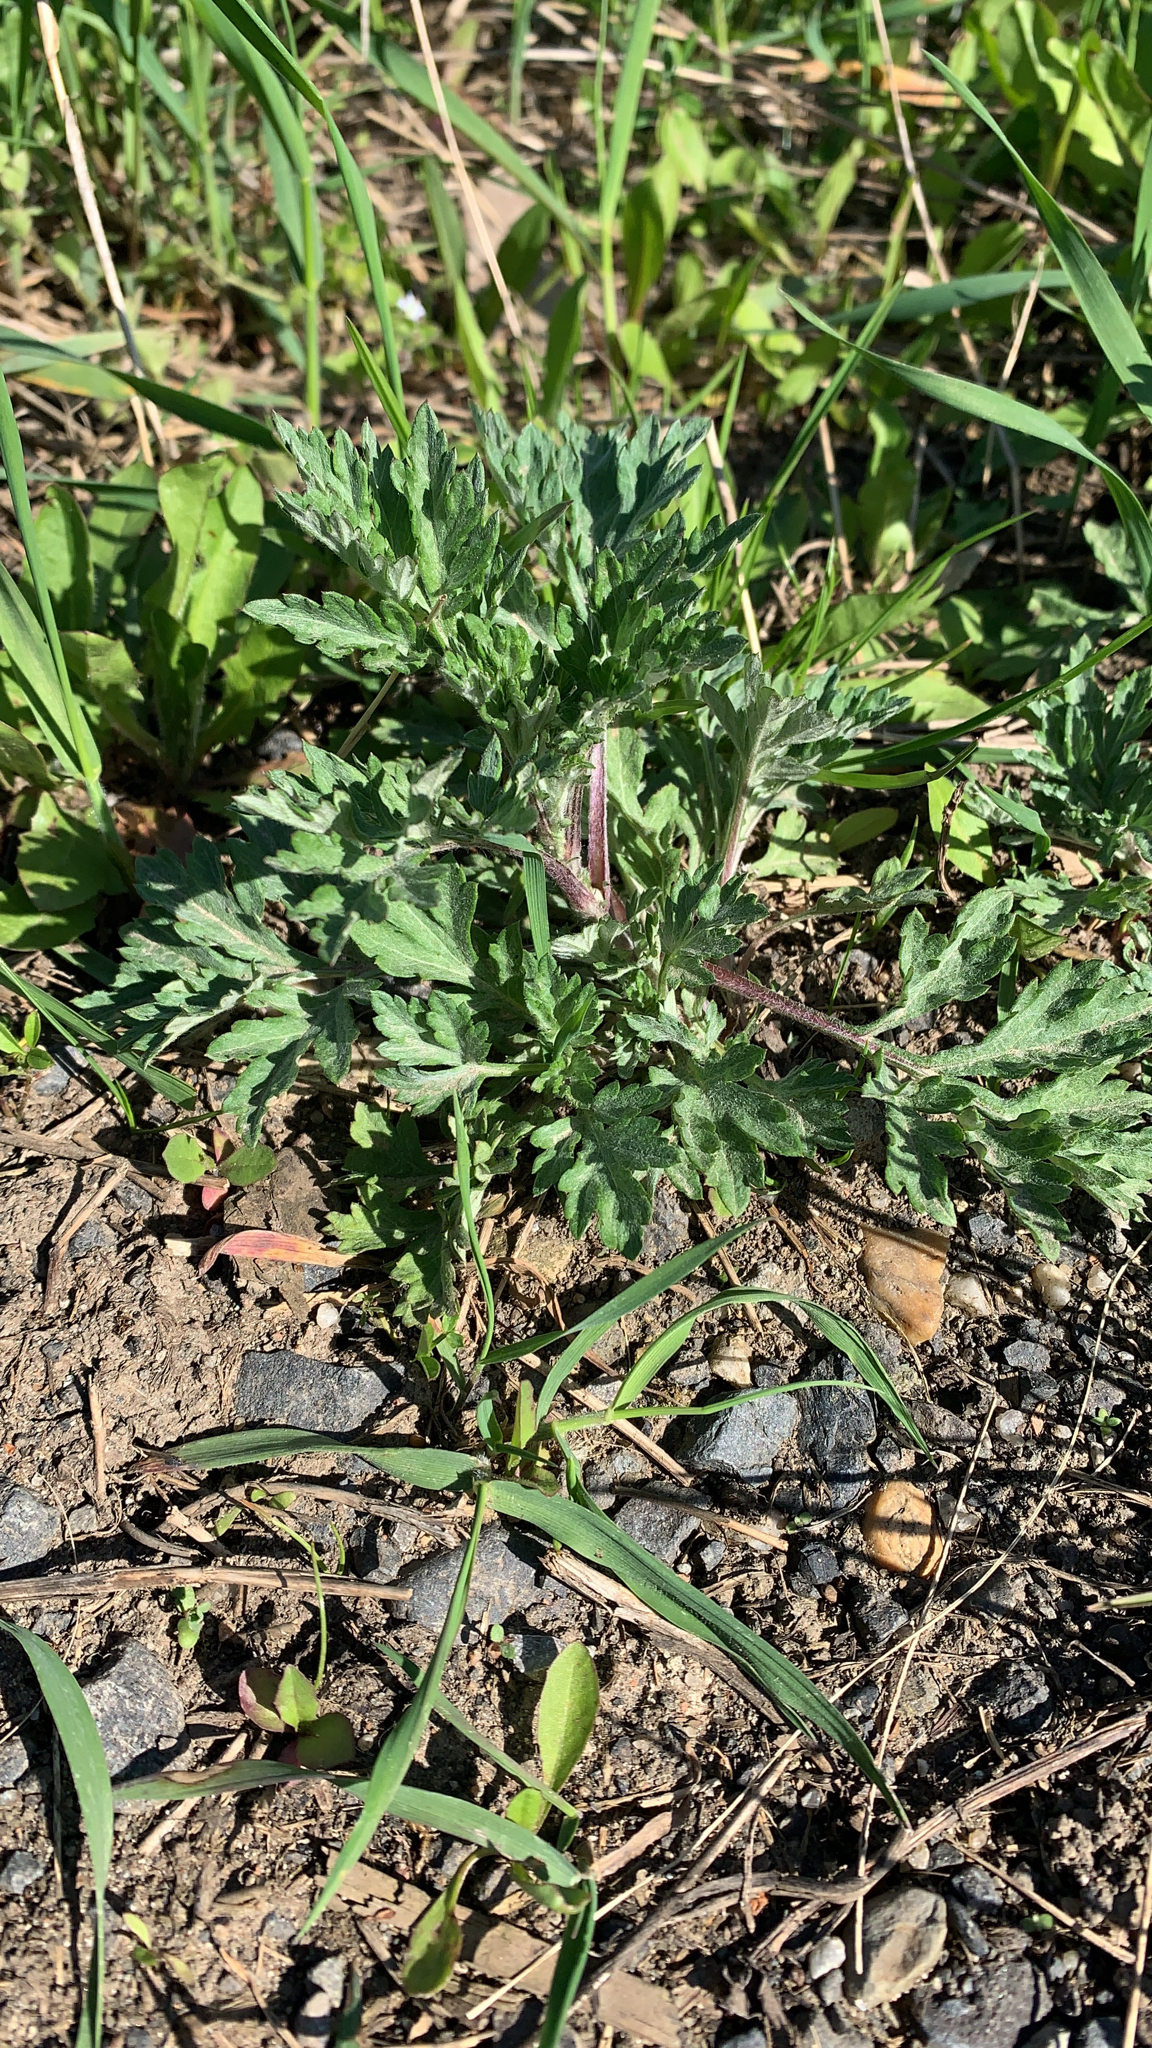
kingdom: Plantae
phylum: Tracheophyta
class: Magnoliopsida
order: Asterales
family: Asteraceae
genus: Artemisia
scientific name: Artemisia vulgaris
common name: Mugwort
